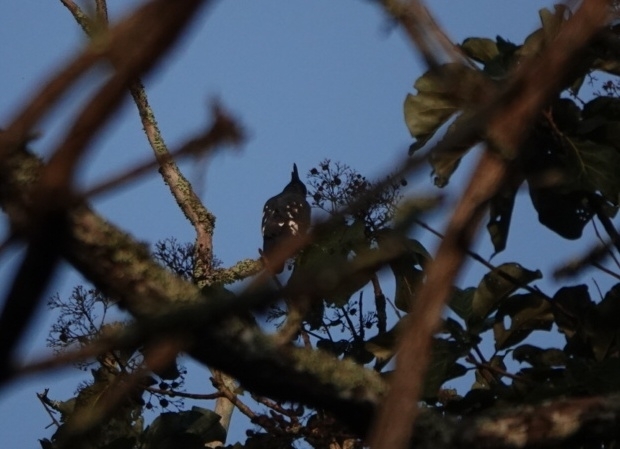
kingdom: Animalia
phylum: Chordata
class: Aves
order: Accipitriformes
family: Accipitridae
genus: Aviceda
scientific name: Aviceda leuphotes
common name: Black baza
